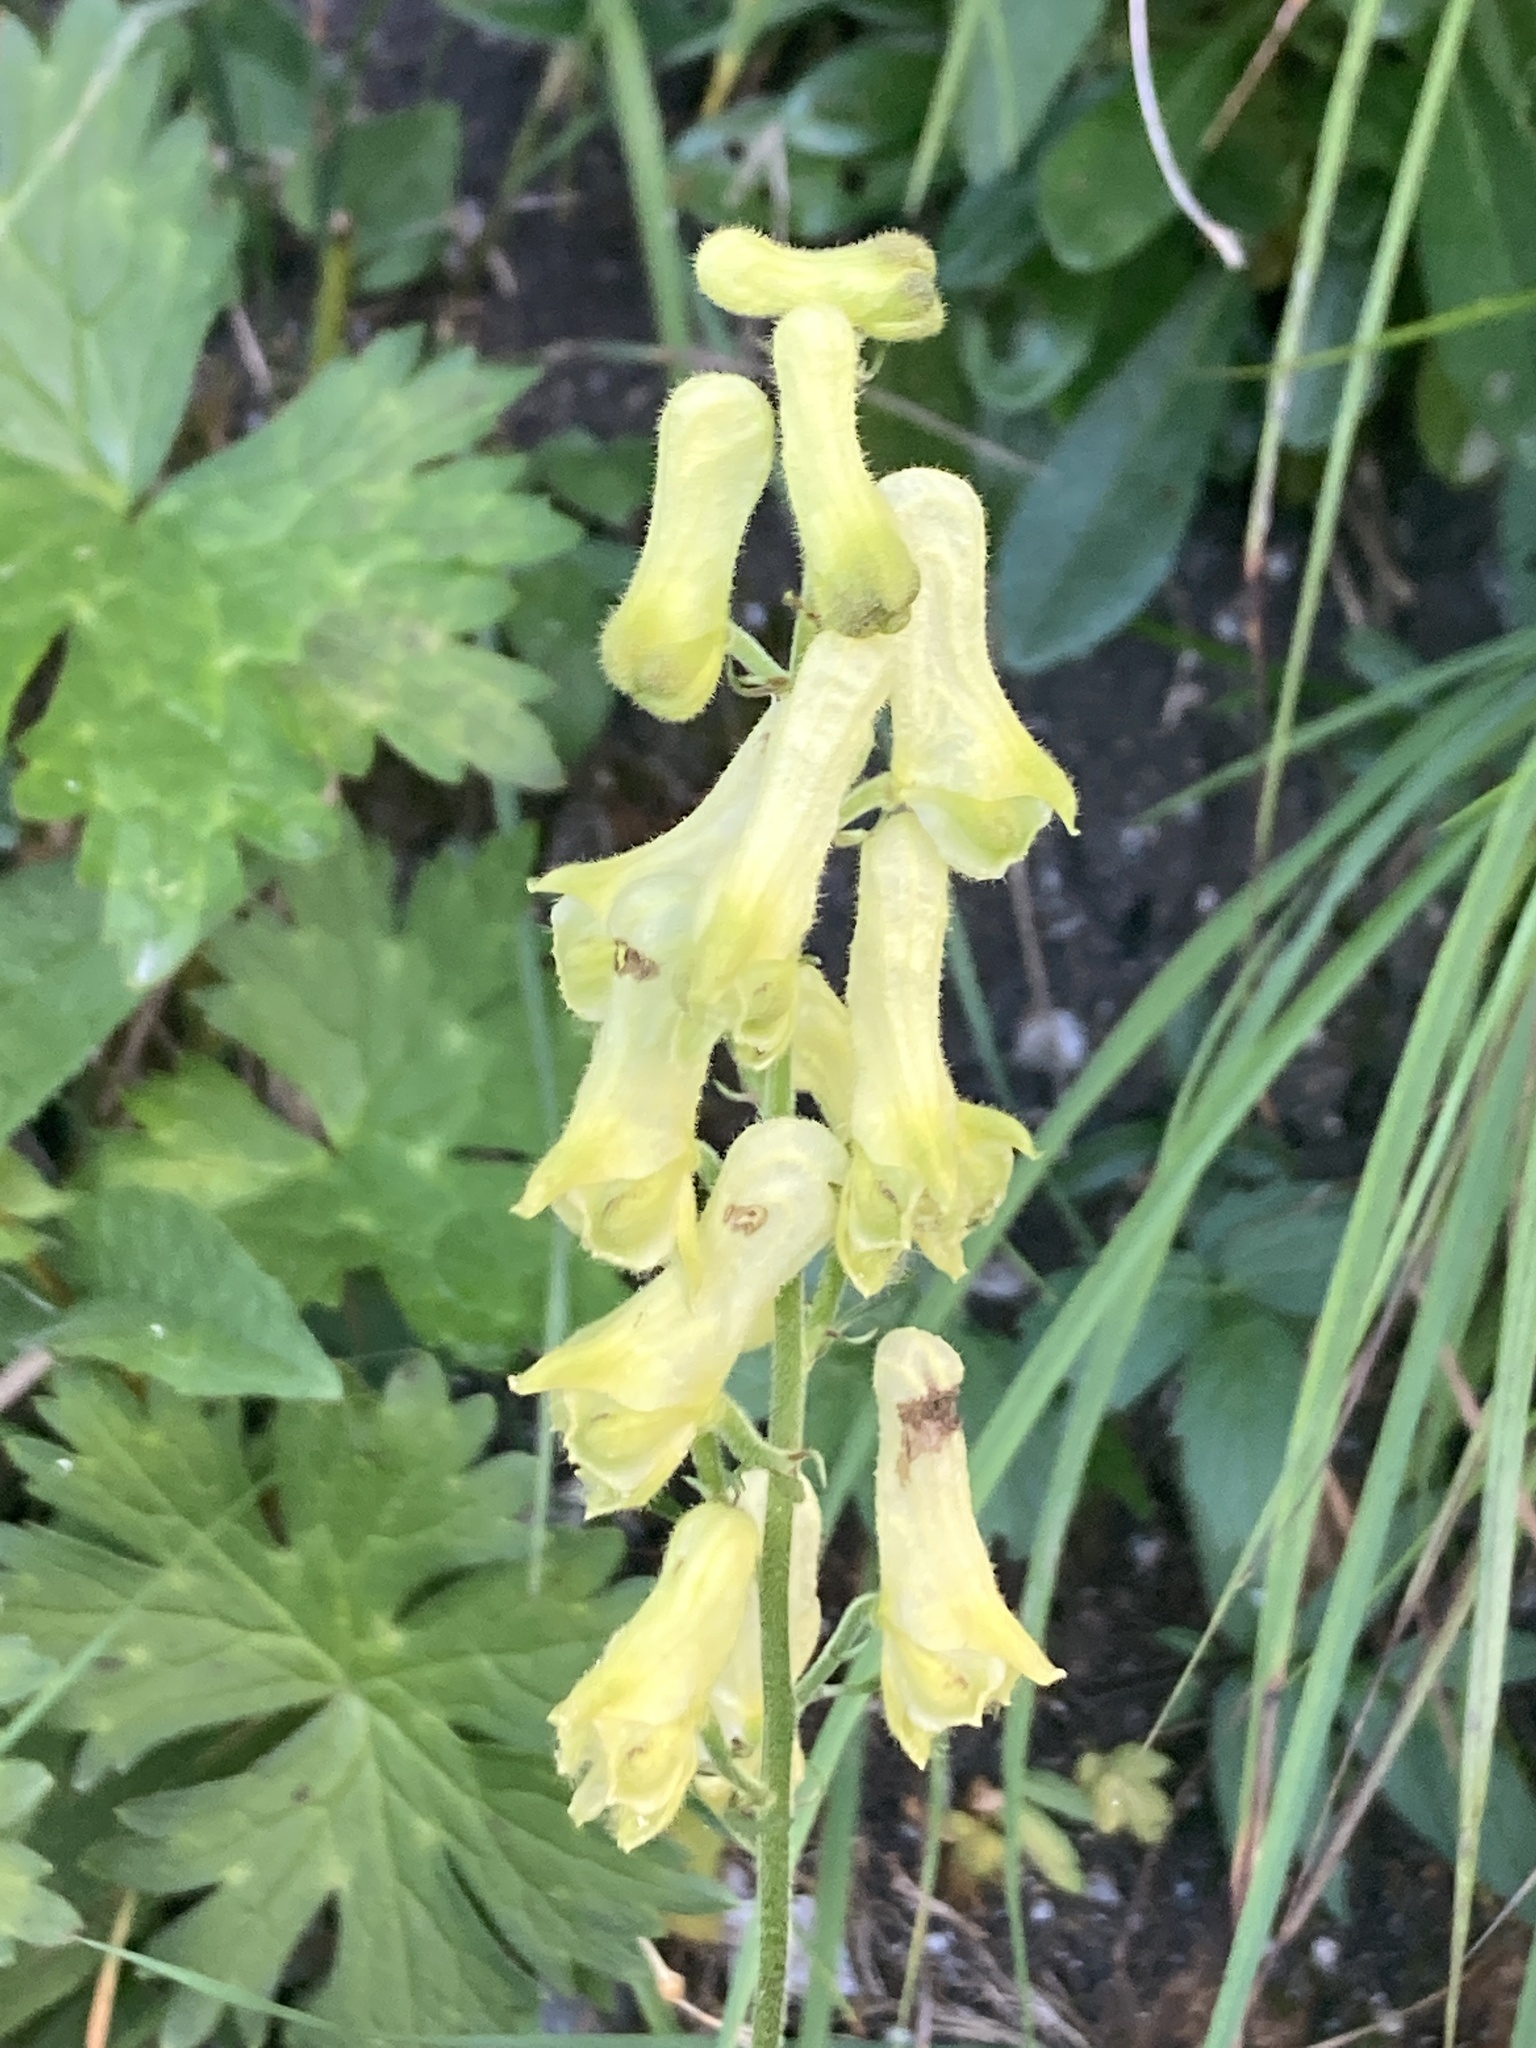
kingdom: Plantae
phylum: Tracheophyta
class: Magnoliopsida
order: Ranunculales
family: Ranunculaceae
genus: Aconitum
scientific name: Aconitum lycoctonum
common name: Wolf's-bane
